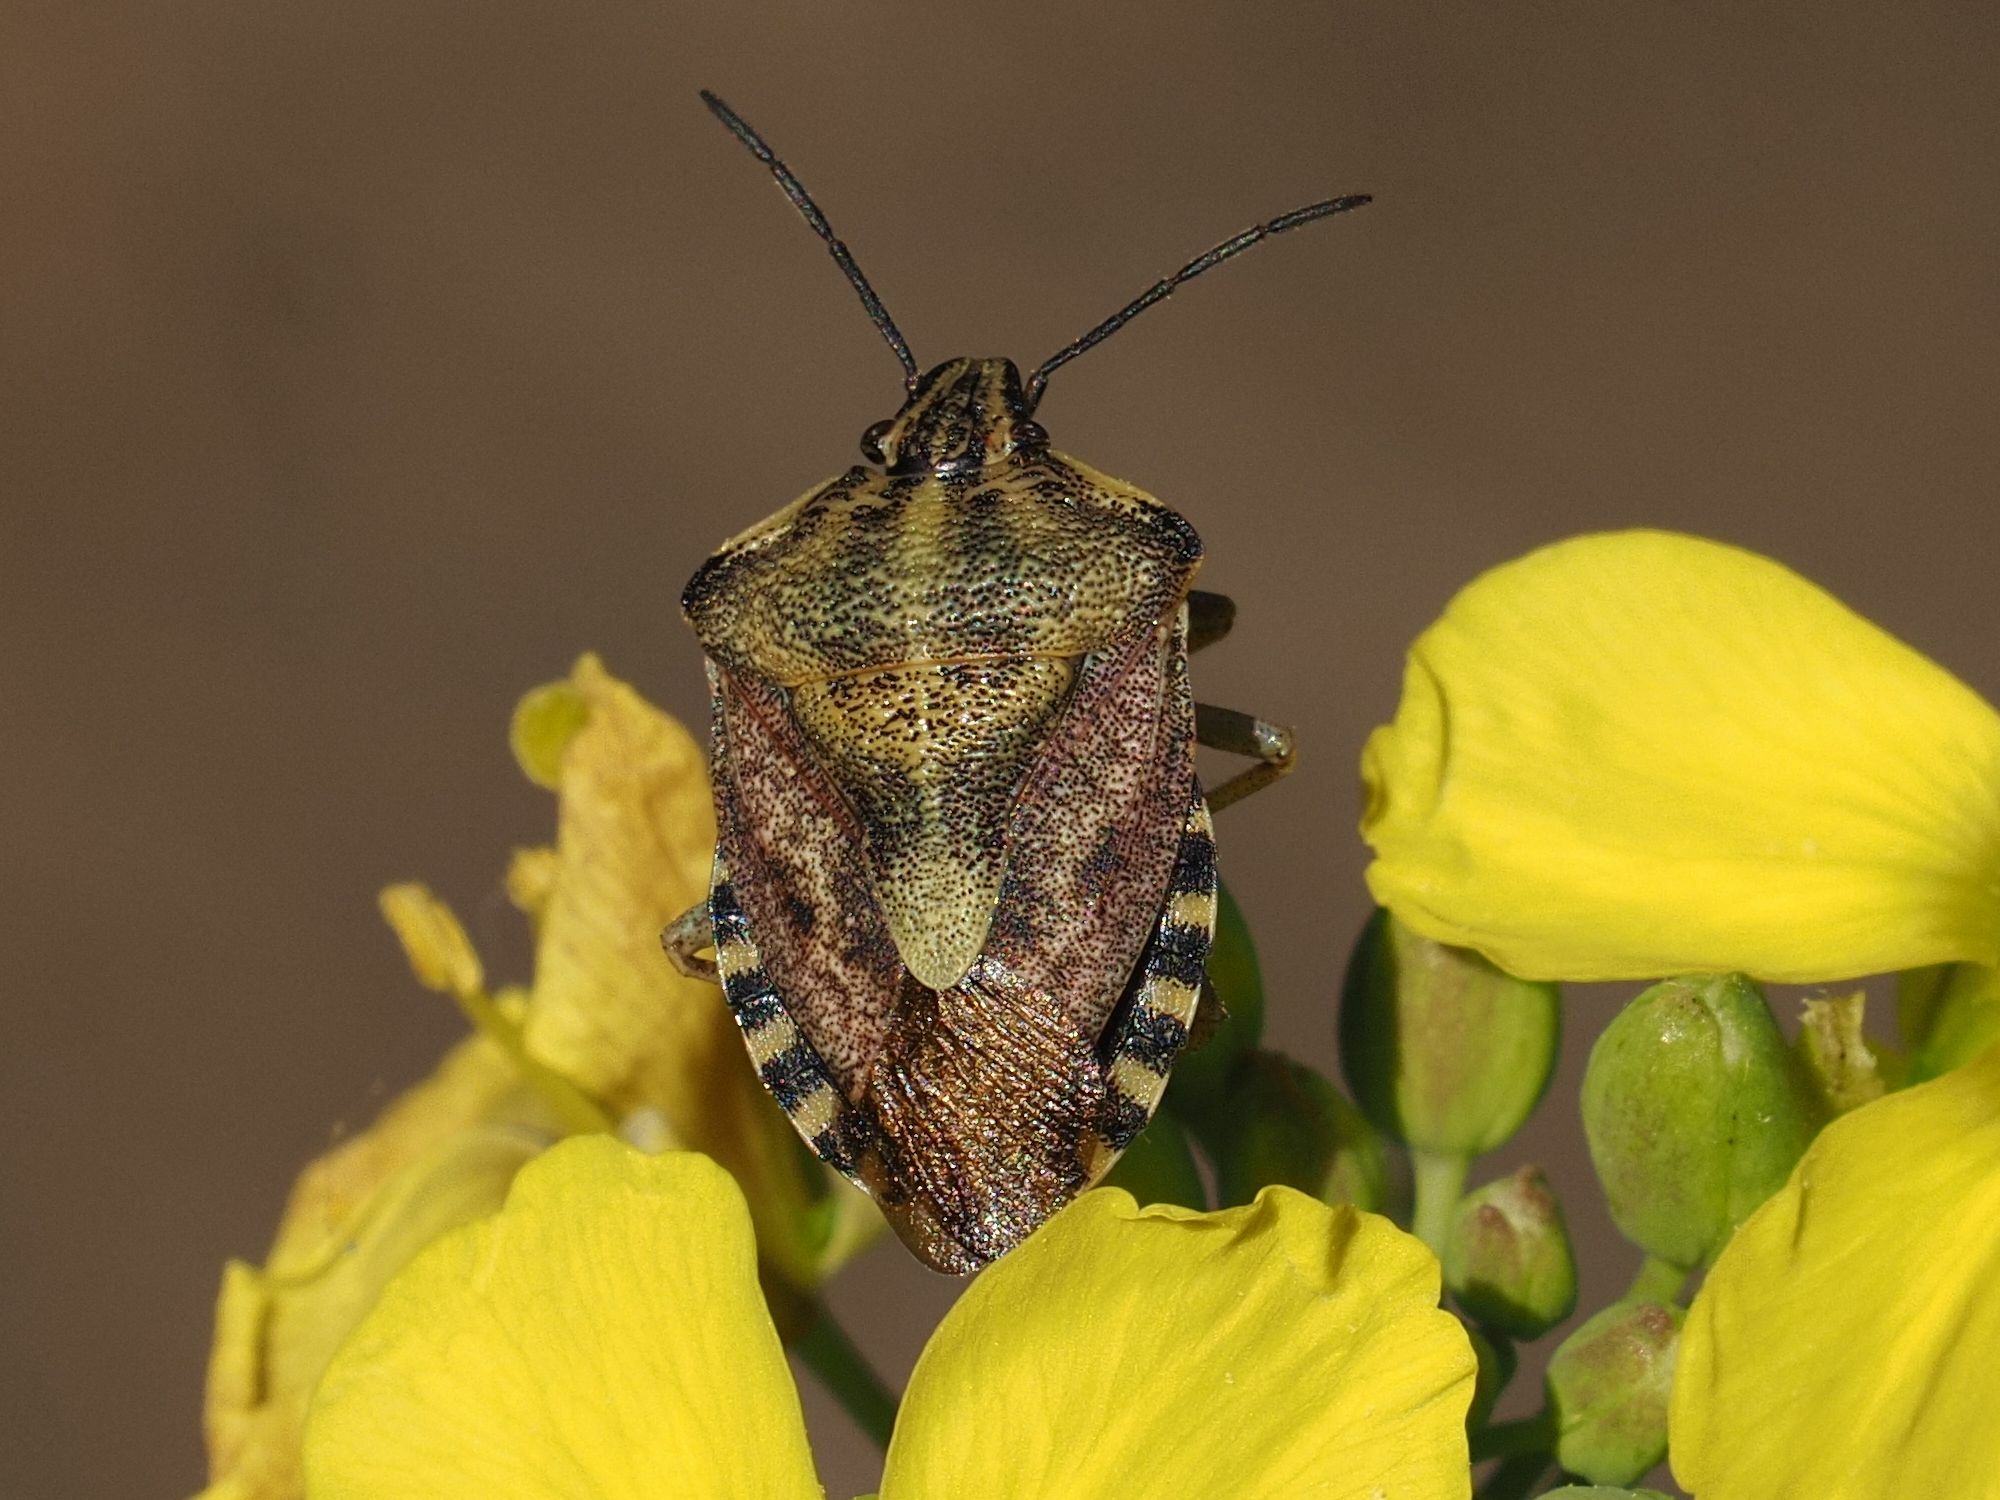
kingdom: Animalia
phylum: Arthropoda
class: Insecta
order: Hemiptera
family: Pentatomidae
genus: Carpocoris
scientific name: Carpocoris purpureipennis
